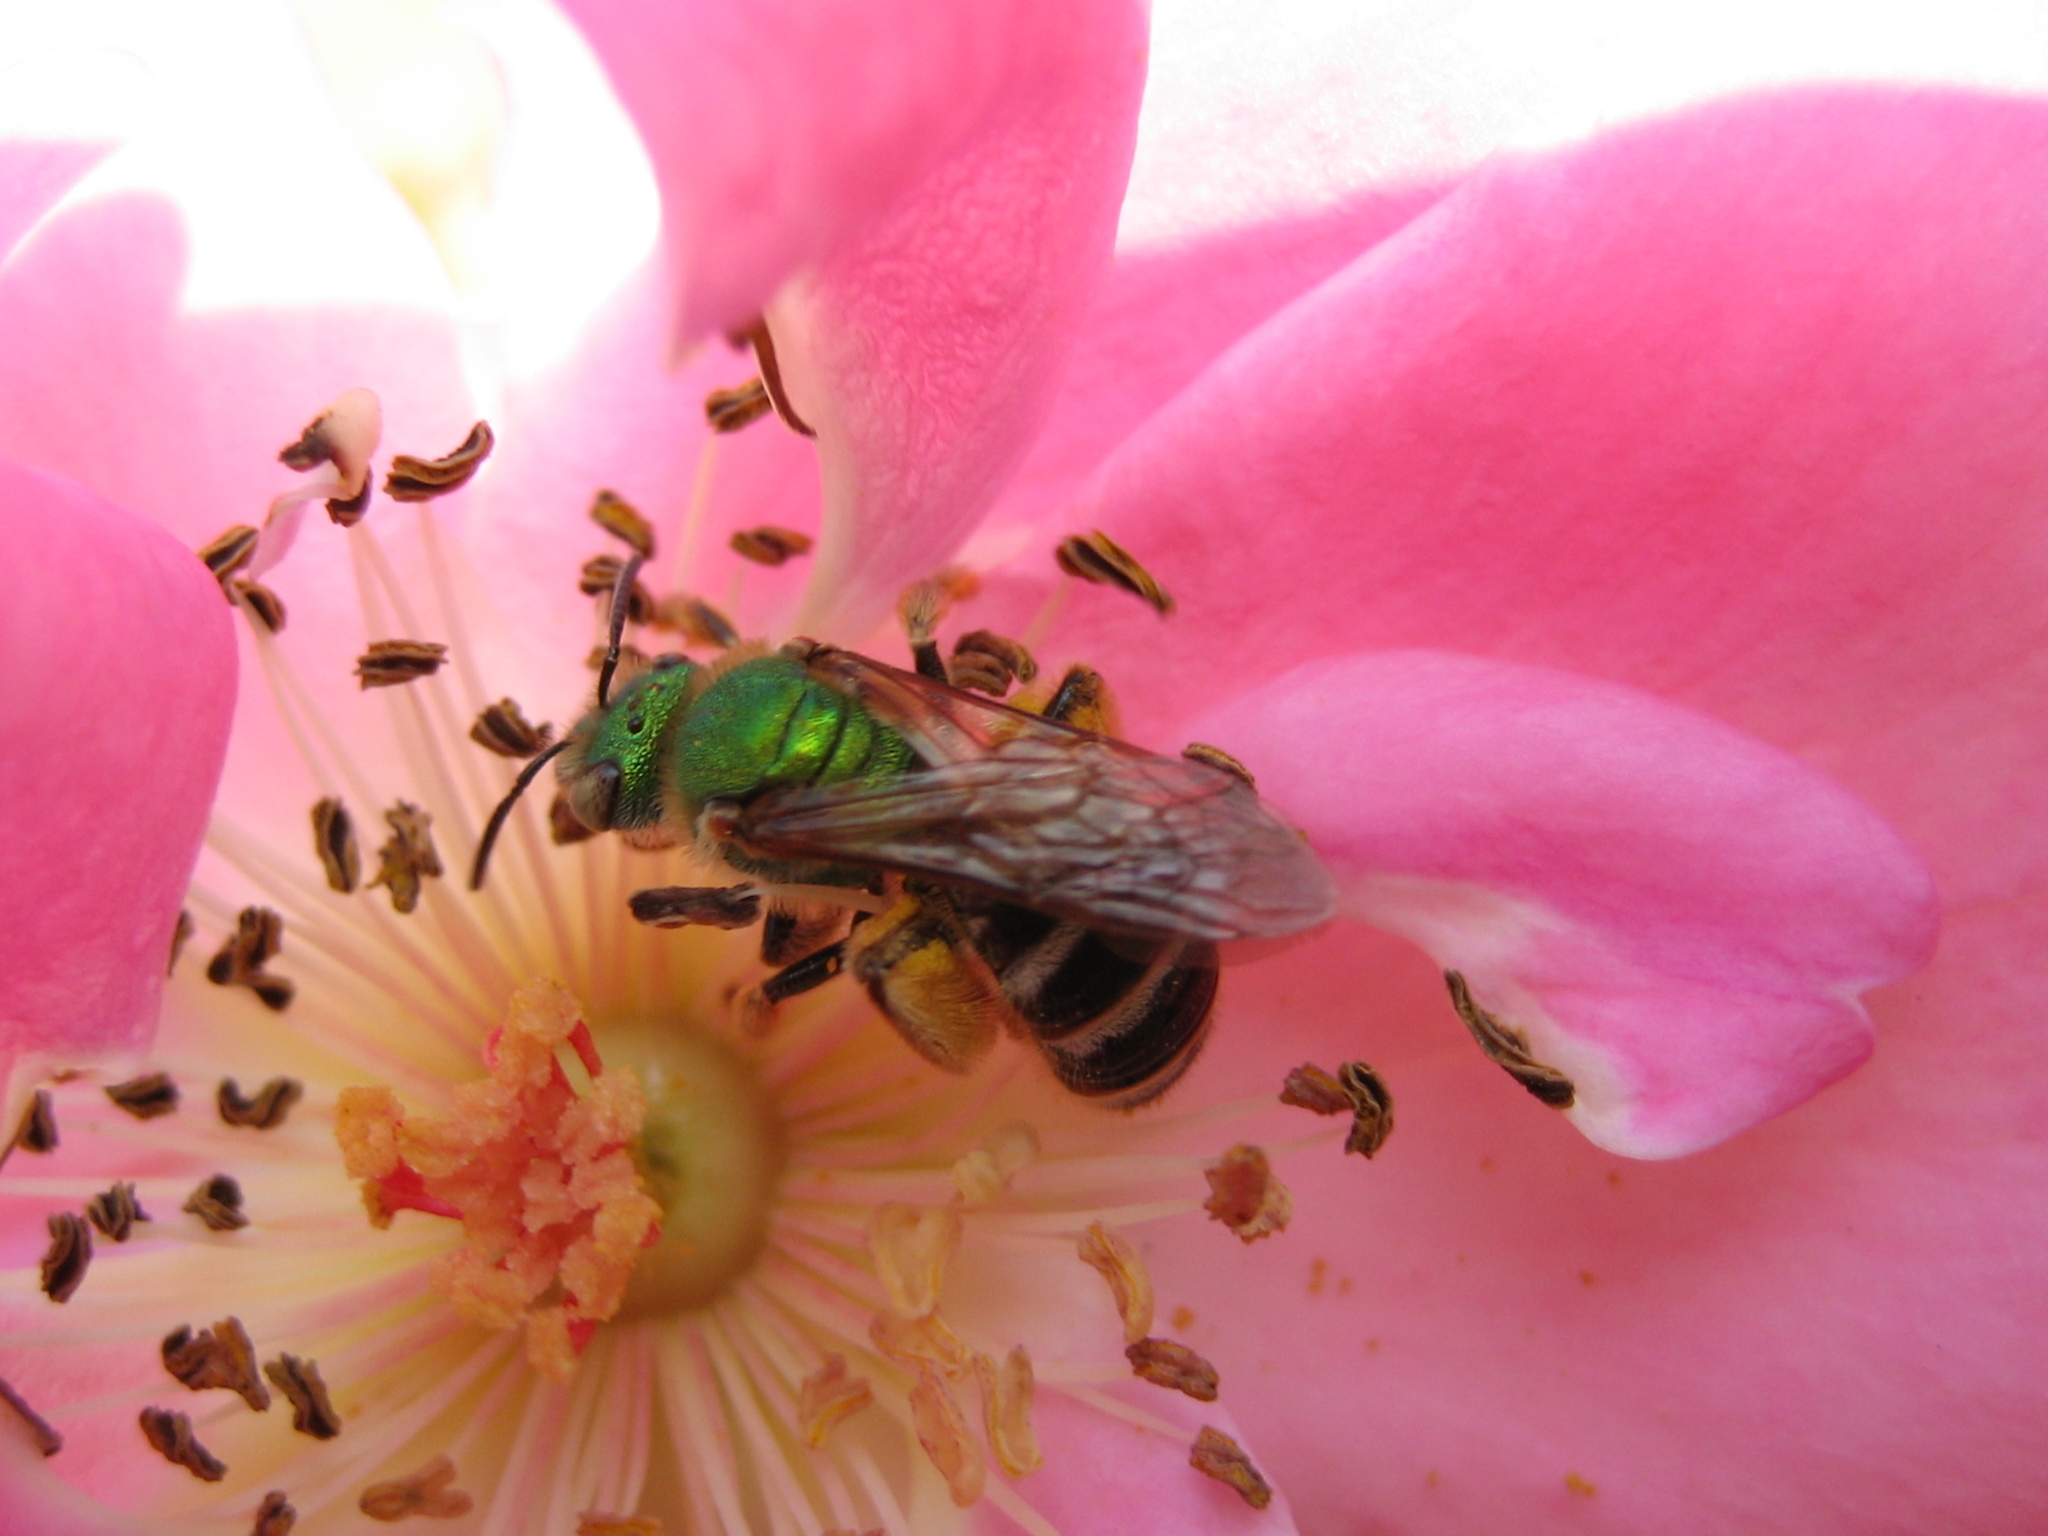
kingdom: Animalia
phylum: Arthropoda
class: Insecta
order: Hymenoptera
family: Halictidae
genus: Agapostemon
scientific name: Agapostemon virescens
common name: Bicolored striped sweat bee
